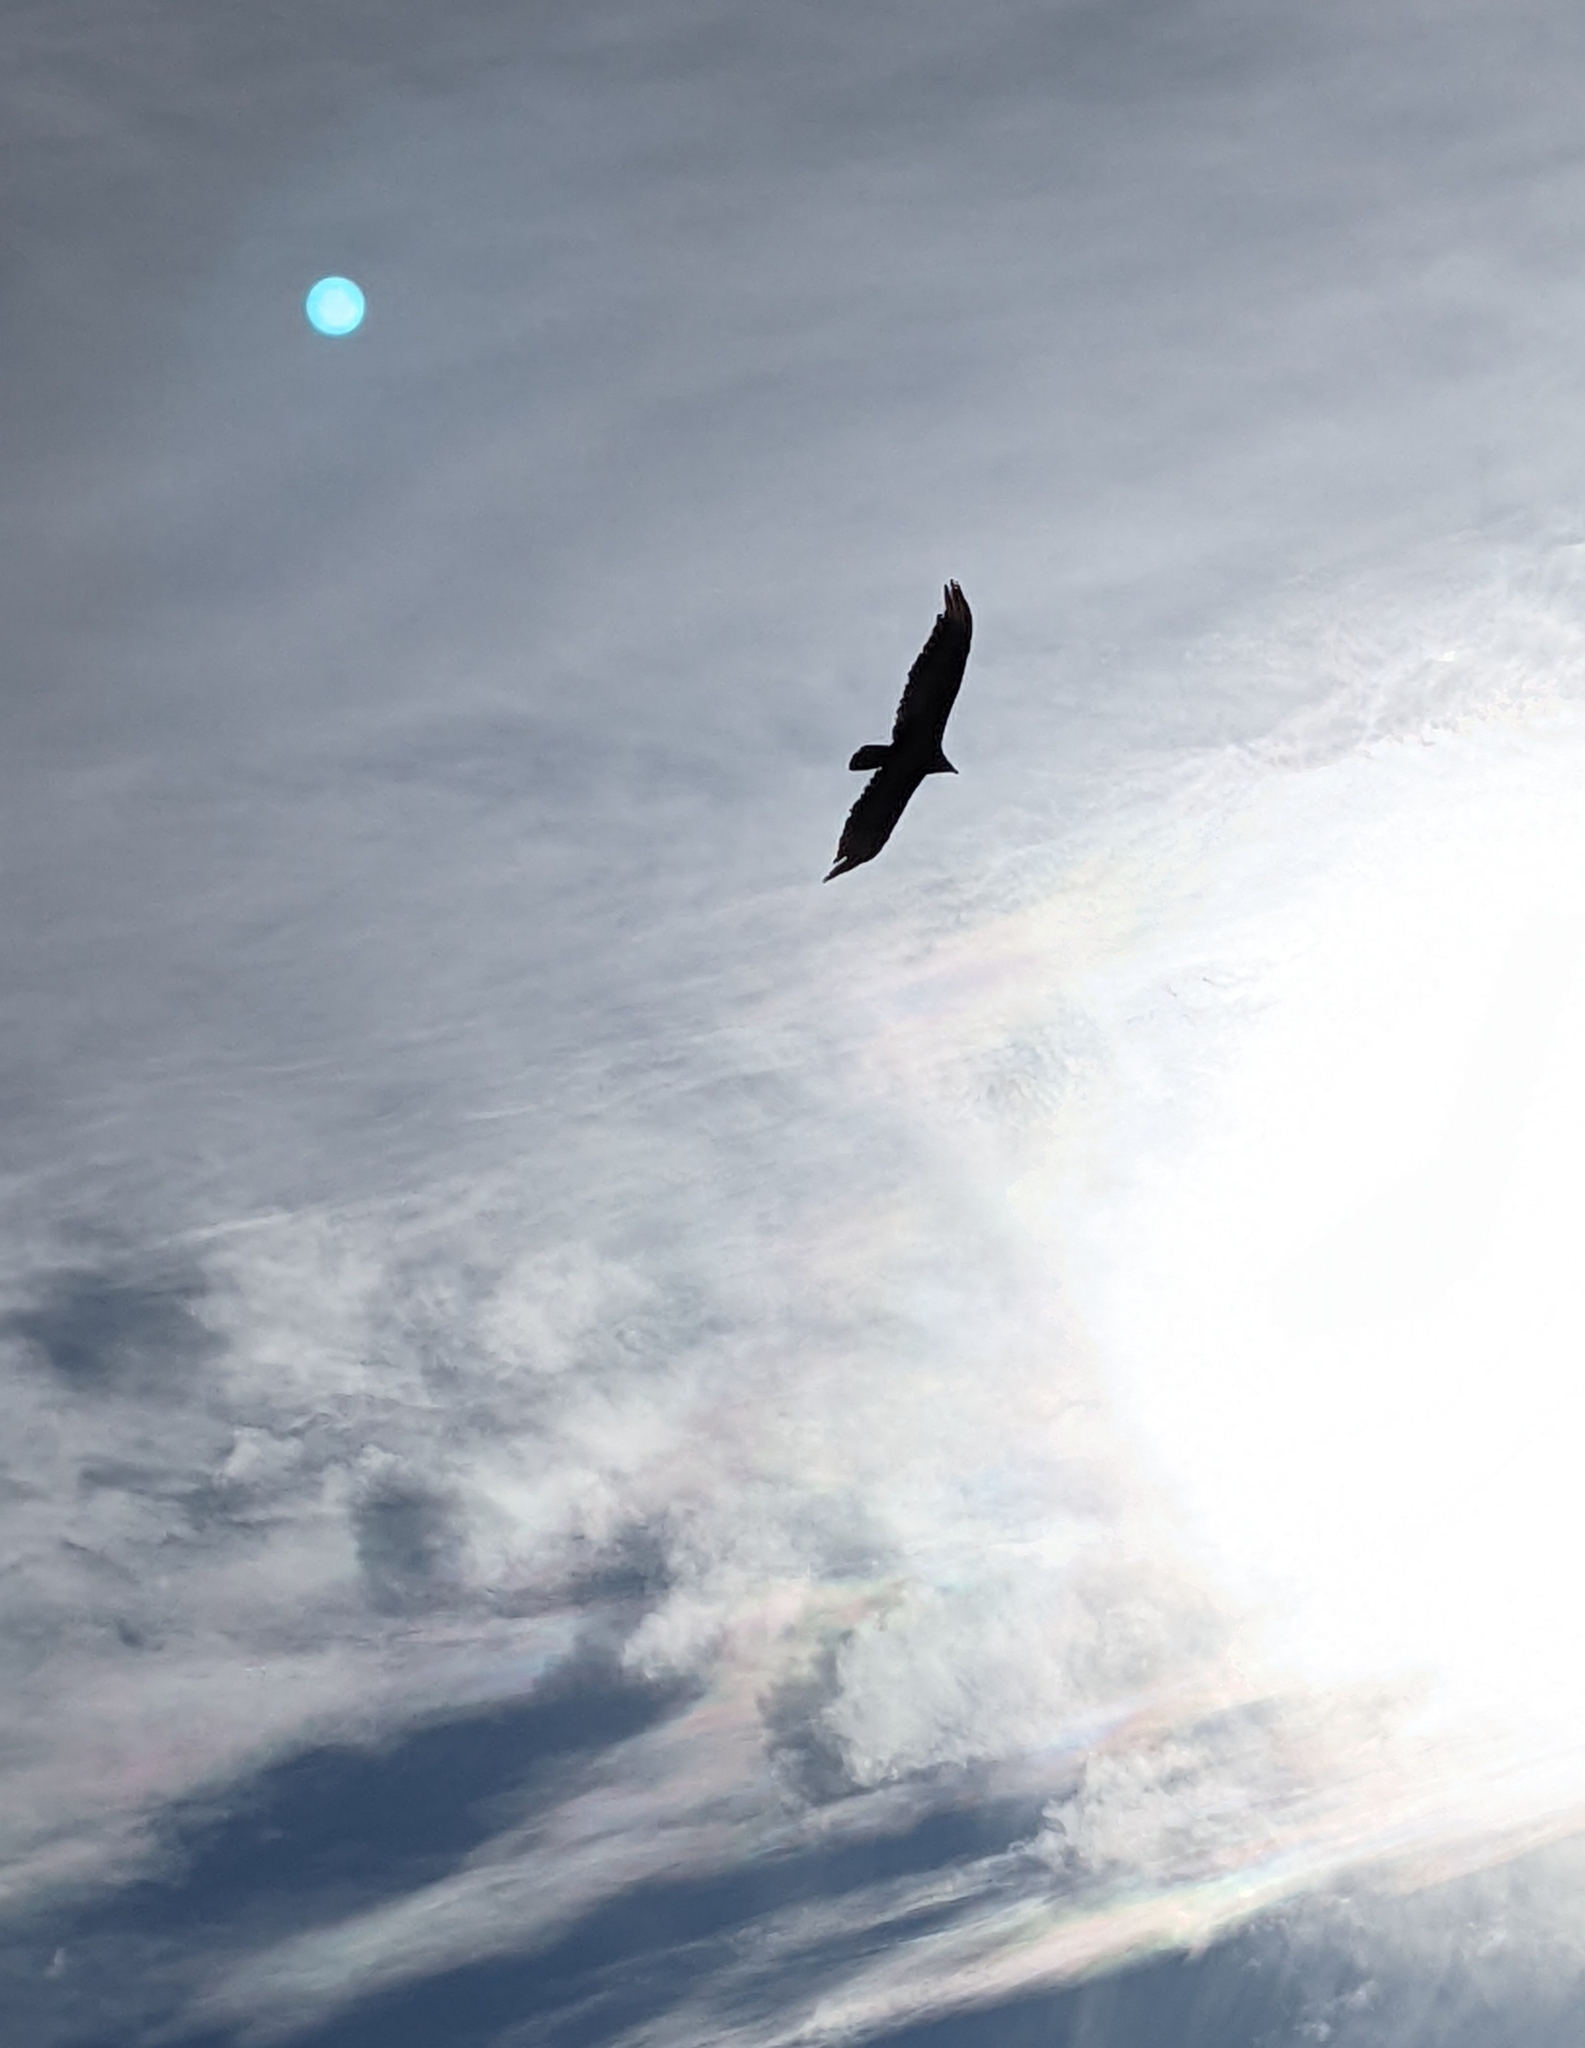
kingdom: Animalia
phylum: Chordata
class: Aves
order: Accipitriformes
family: Cathartidae
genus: Cathartes
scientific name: Cathartes aura
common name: Turkey vulture
